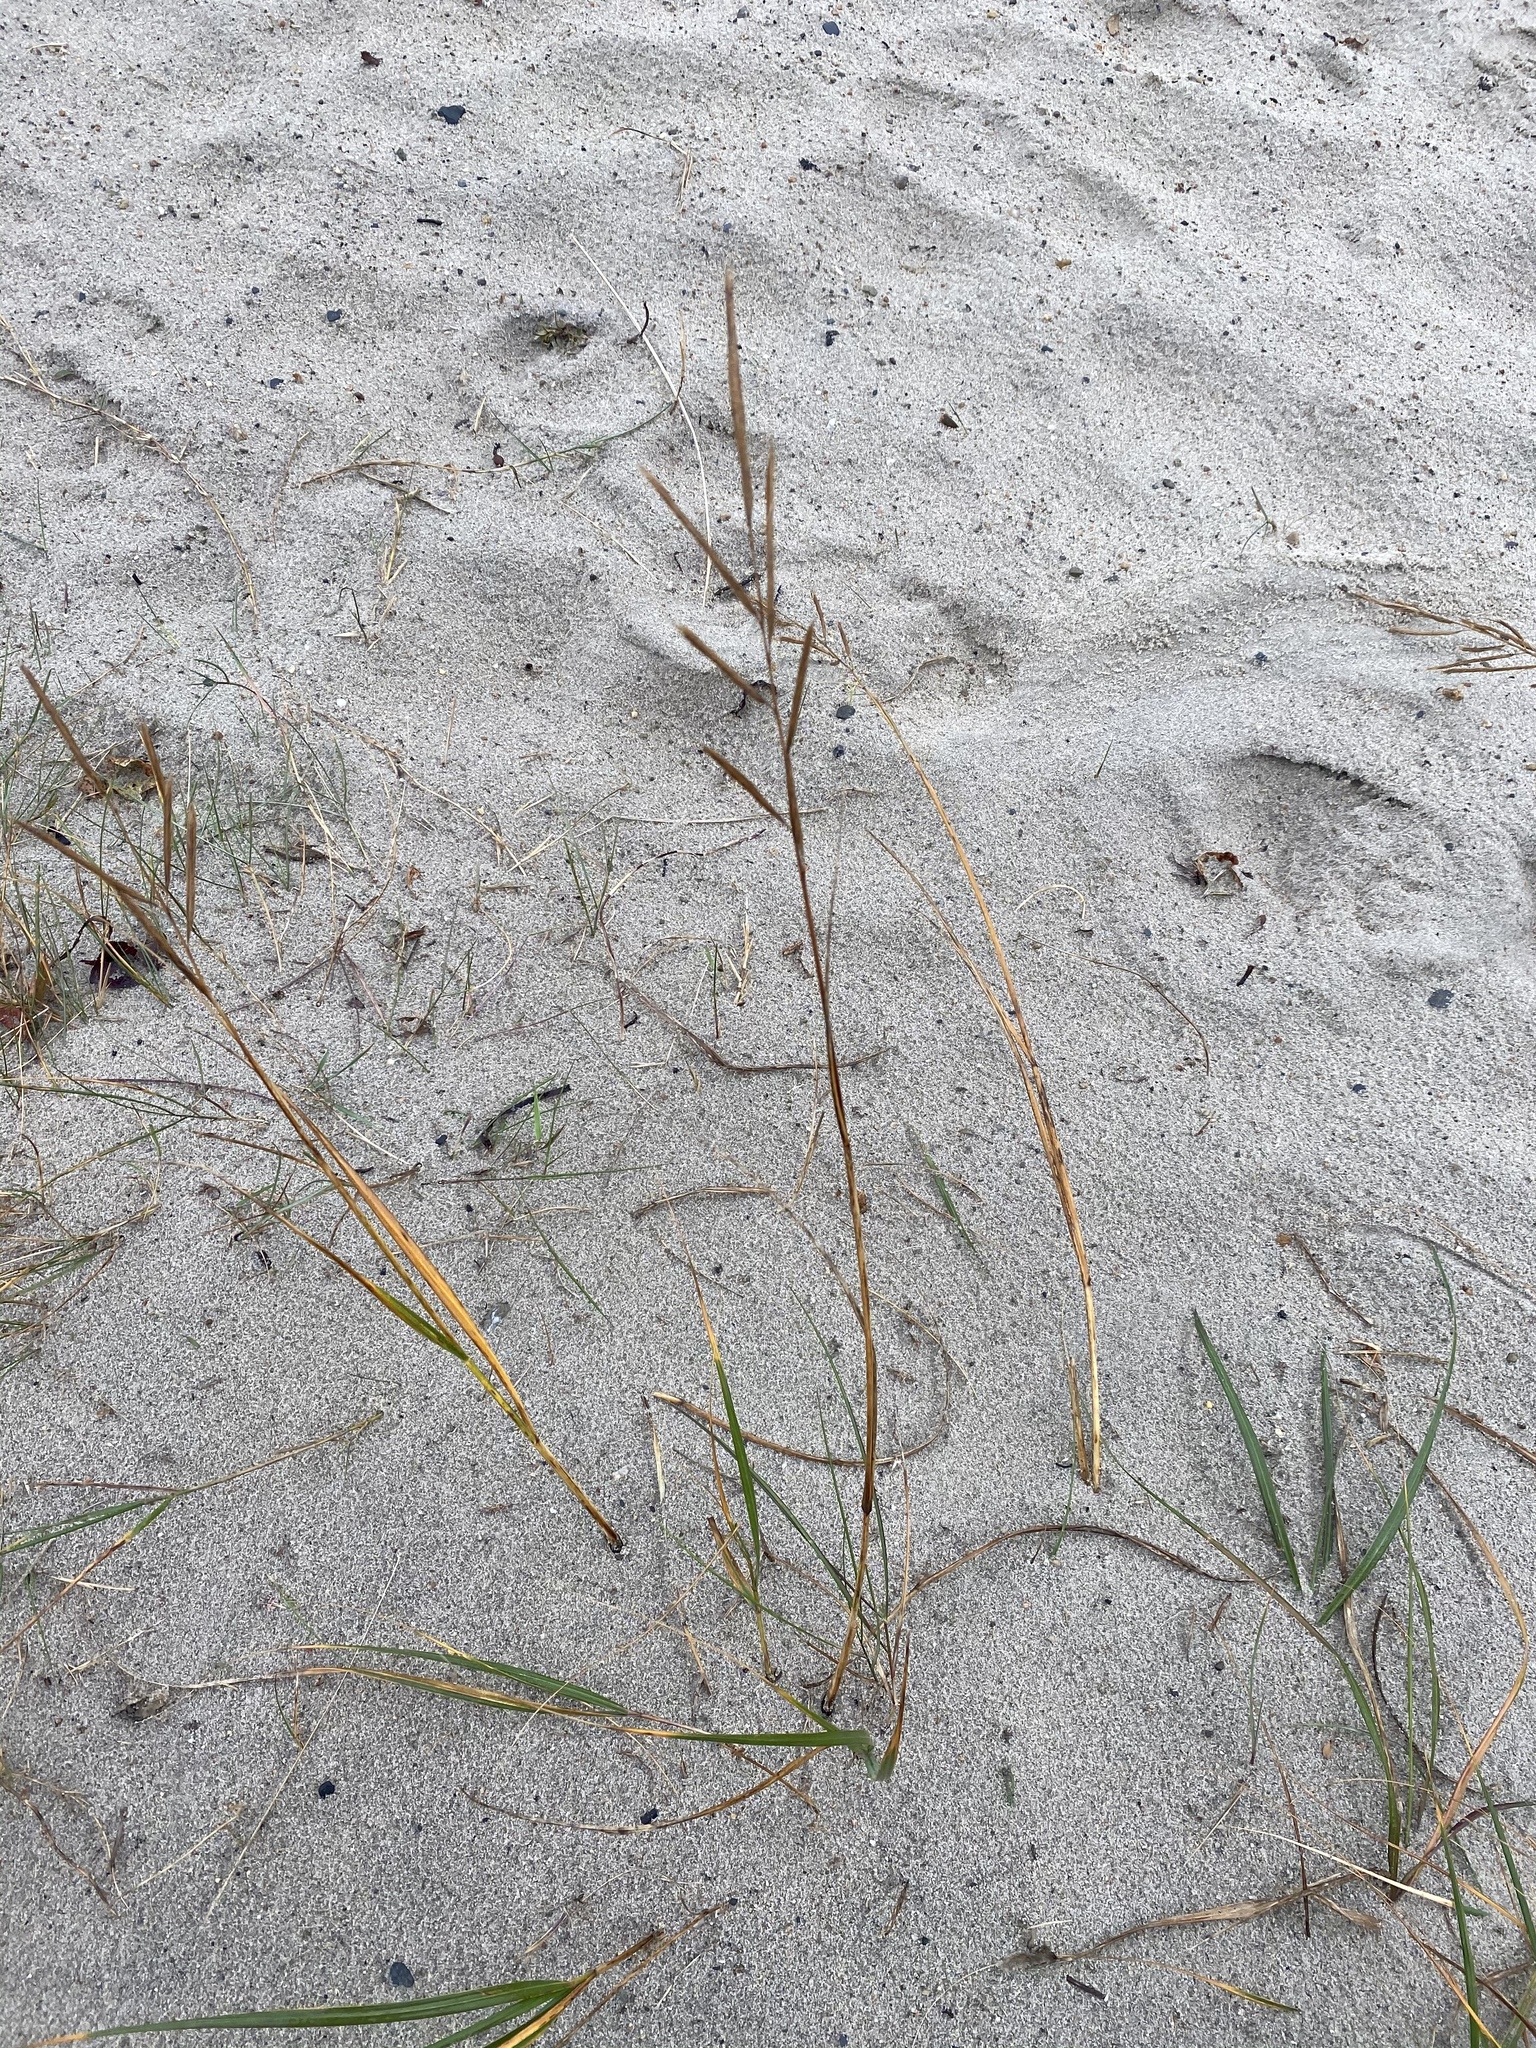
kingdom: Plantae
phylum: Tracheophyta
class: Liliopsida
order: Poales
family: Poaceae
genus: Sporobolus
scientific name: Sporobolus pumilus
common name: Highwater grass
